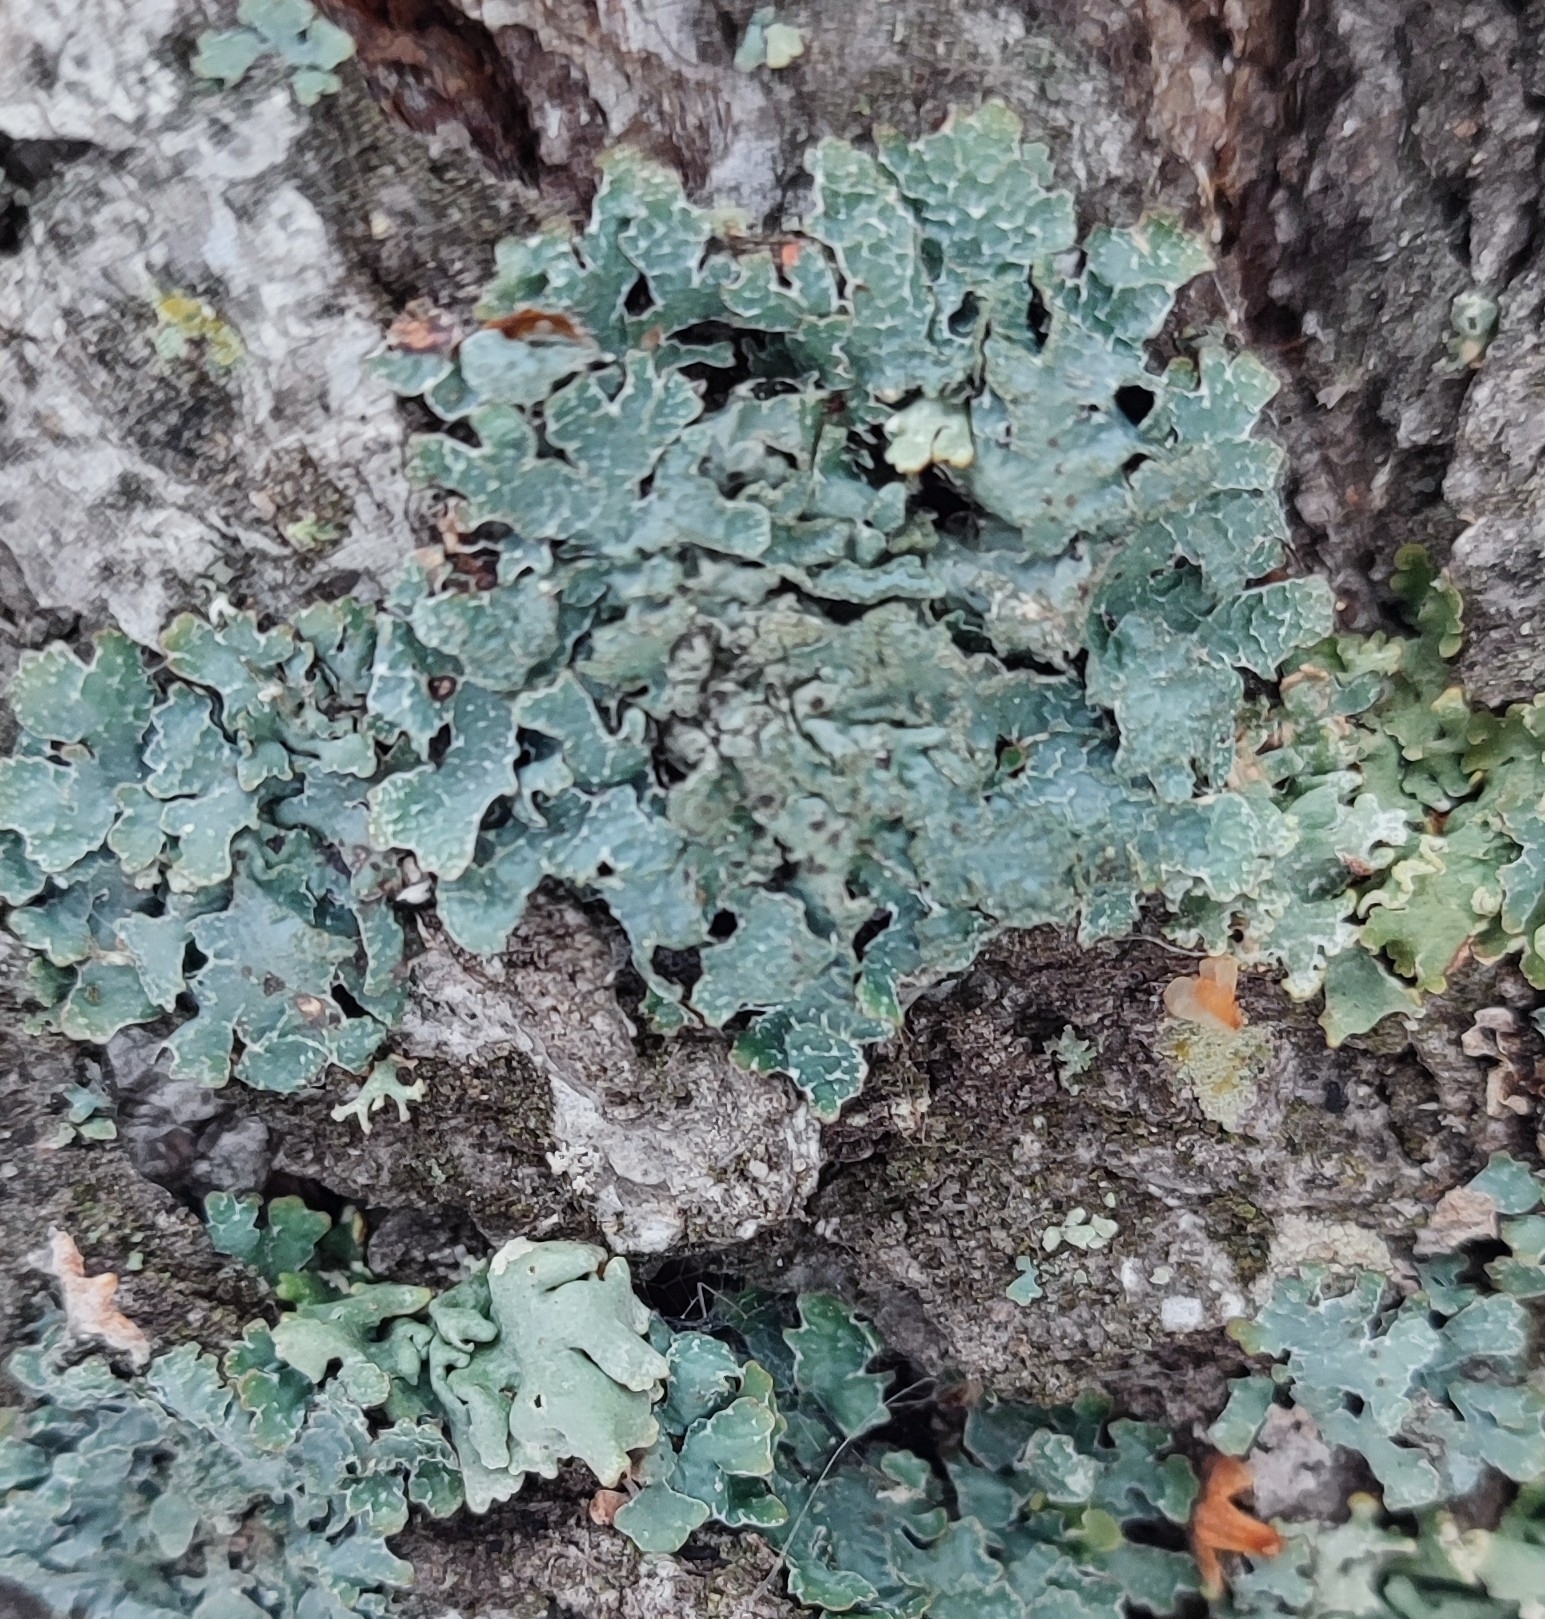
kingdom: Fungi
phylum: Ascomycota
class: Lecanoromycetes
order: Lecanorales
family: Parmeliaceae
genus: Parmelia
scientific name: Parmelia sulcata
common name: Netted shield lichen
